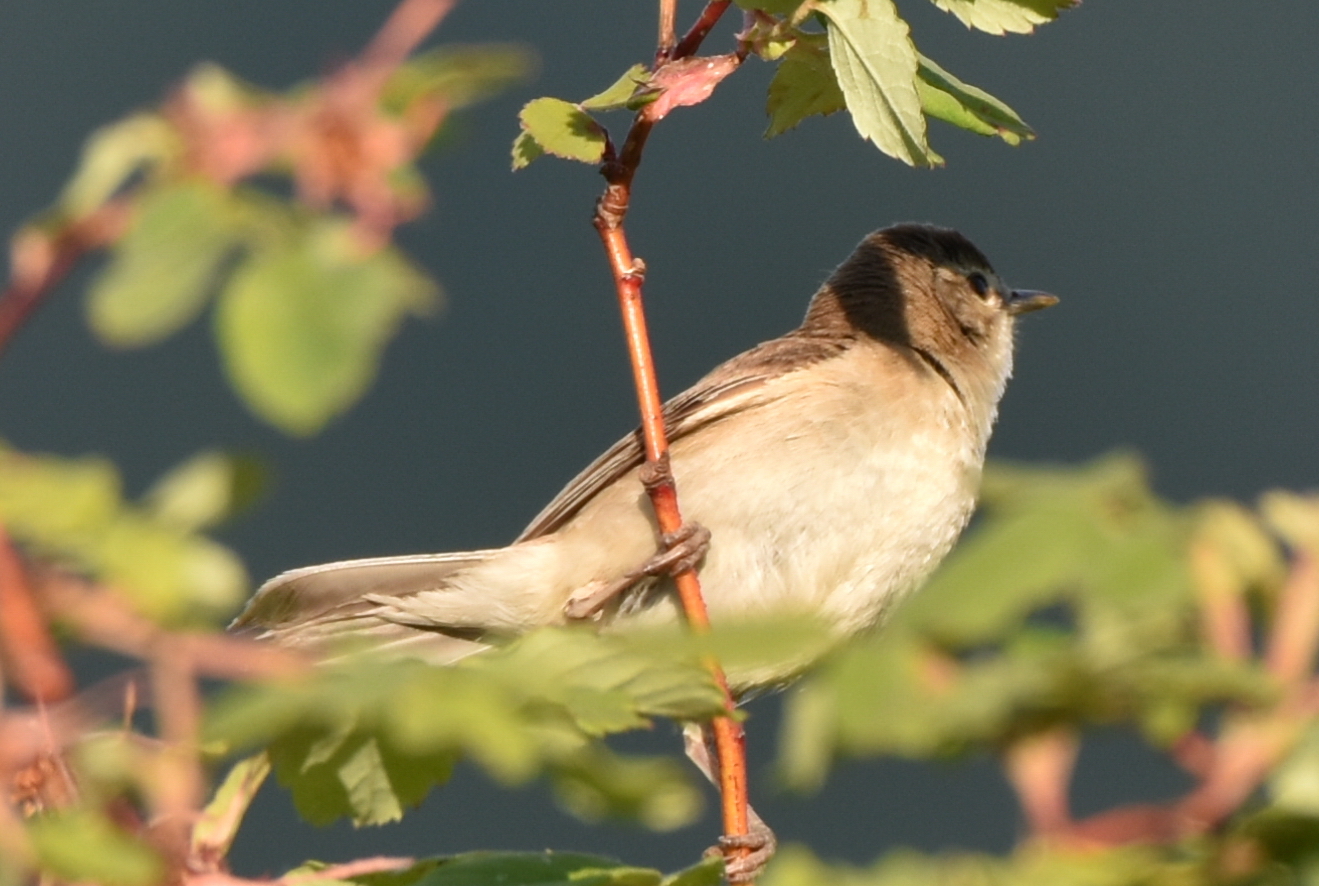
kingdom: Animalia
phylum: Chordata
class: Aves
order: Passeriformes
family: Acrocephalidae
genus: Iduna
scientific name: Iduna caligata
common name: Booted warbler
